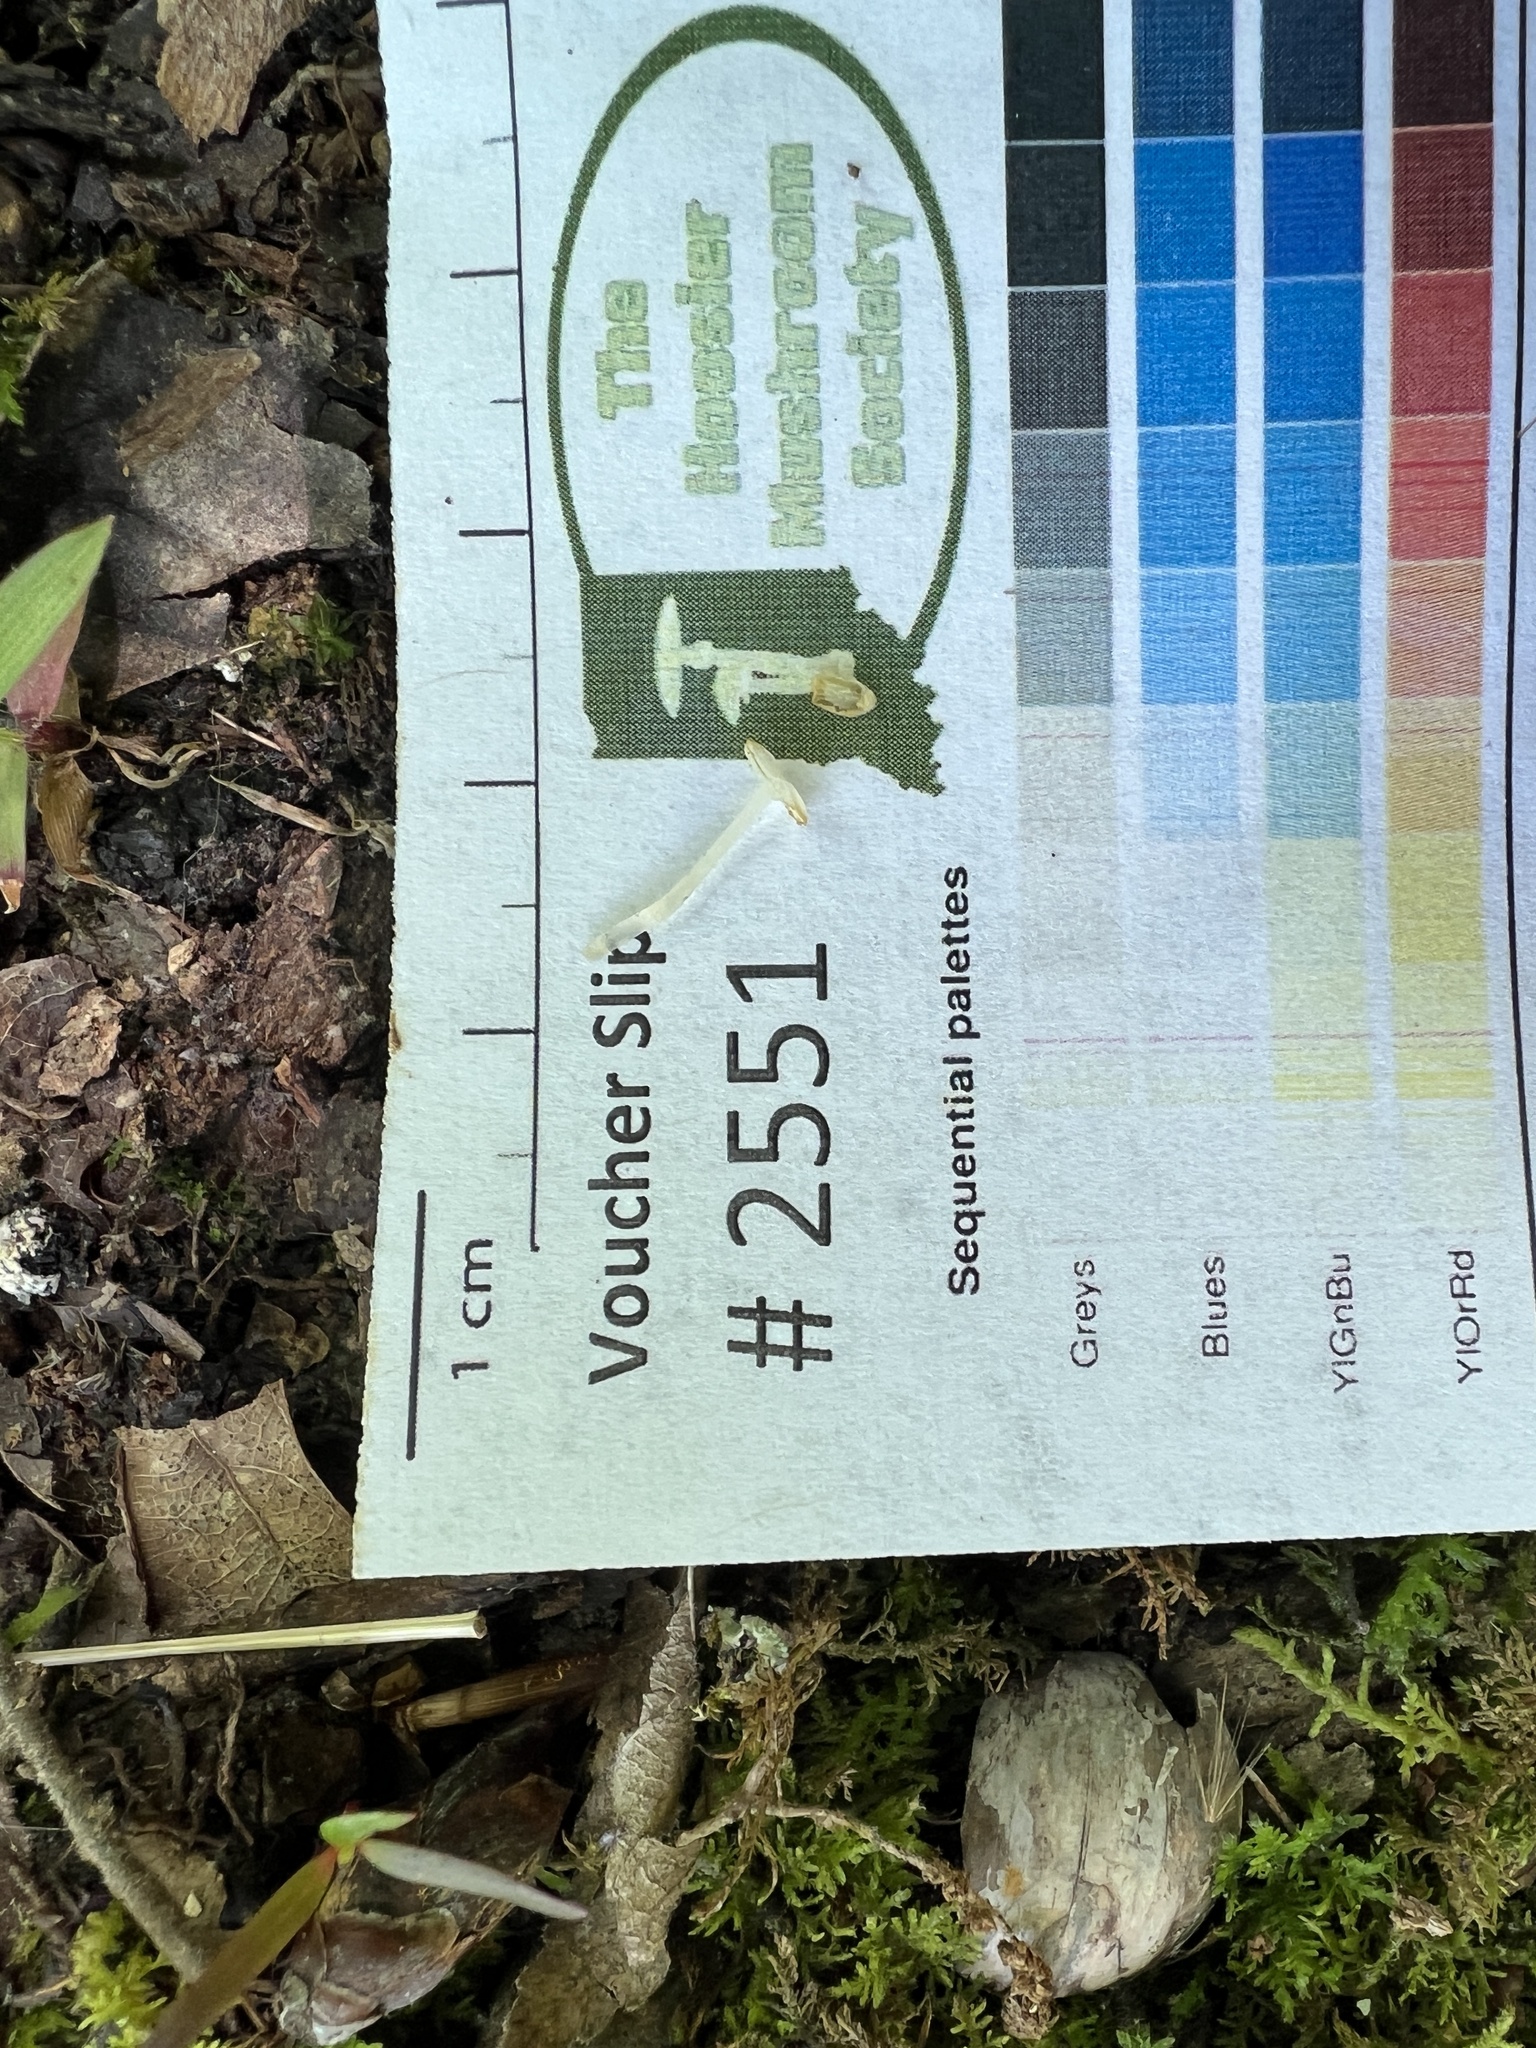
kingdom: Fungi
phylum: Basidiomycota
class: Agaricomycetes
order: Agaricales
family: Tricholomataceae
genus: Delicatula
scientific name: Delicatula integrella
